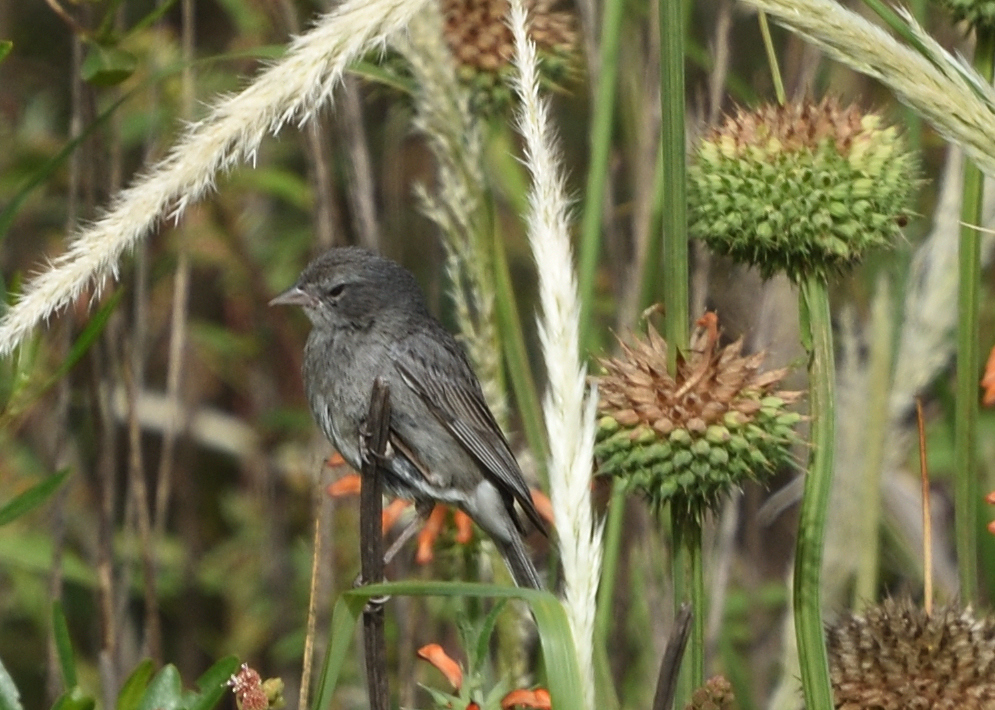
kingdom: Animalia
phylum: Chordata
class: Aves
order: Passeriformes
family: Thraupidae
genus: Geospizopsis
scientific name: Geospizopsis plebejus
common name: Ash-breasted sierra-finch
